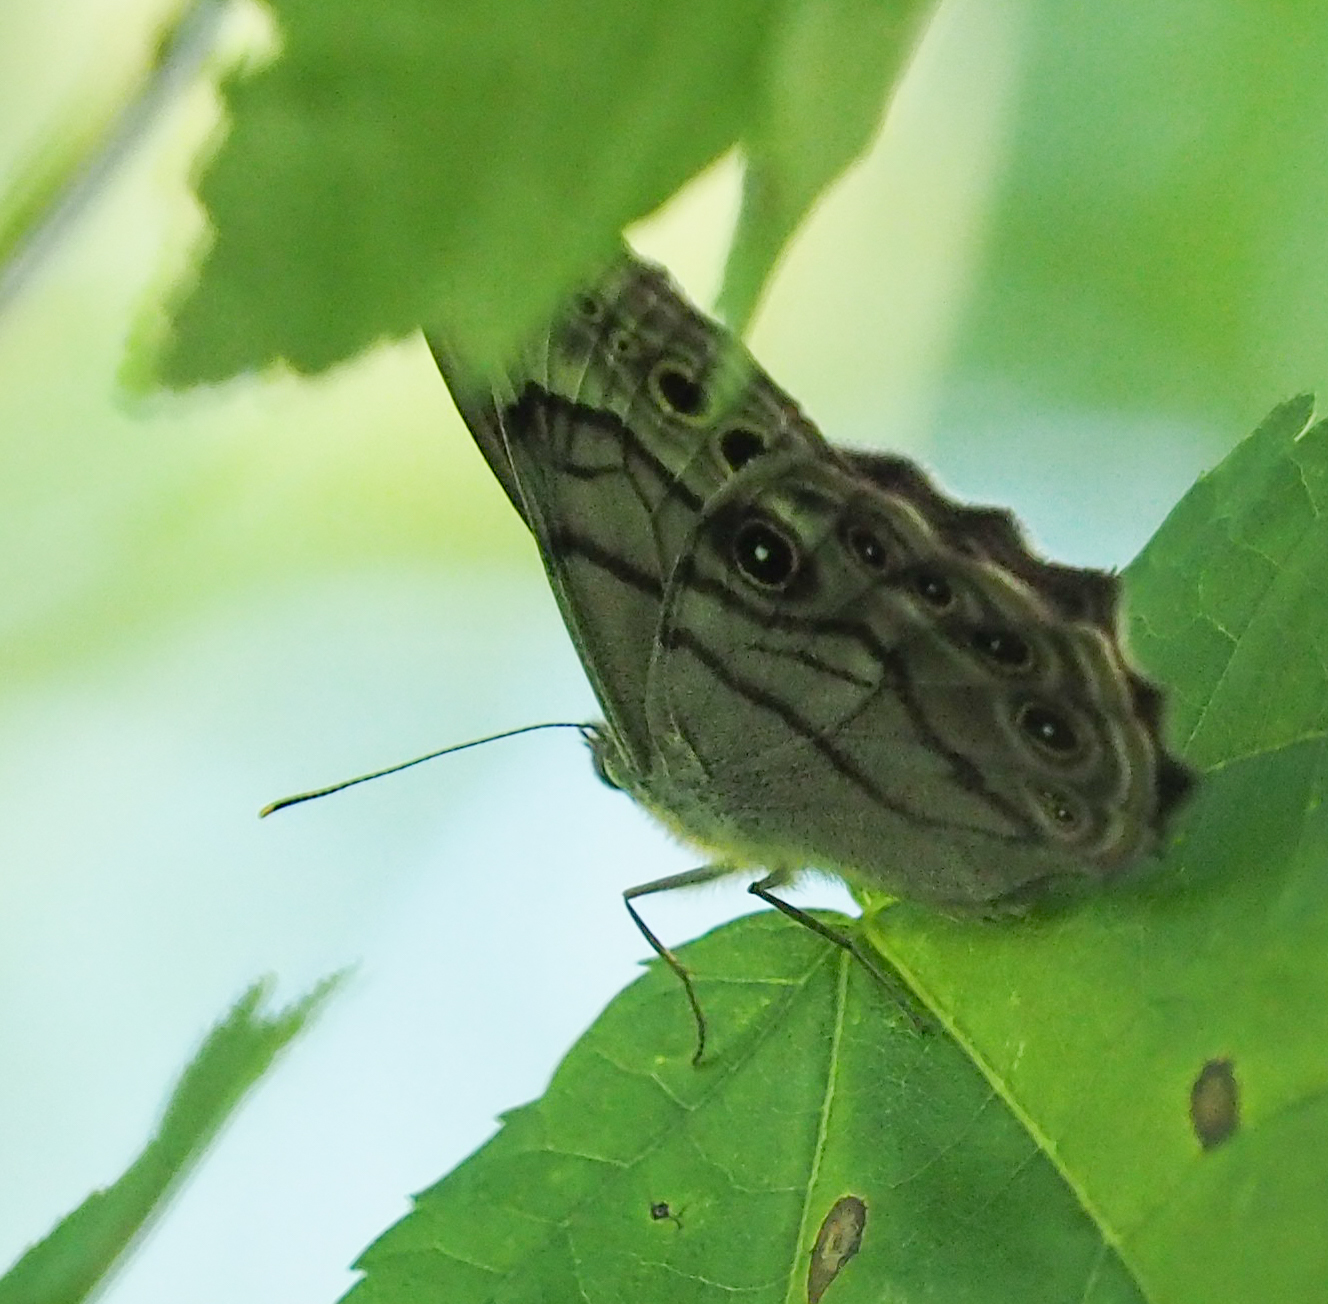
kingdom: Animalia
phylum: Arthropoda
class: Insecta
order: Lepidoptera
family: Nymphalidae
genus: Lethe
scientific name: Lethe anthedon
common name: Northern pearly-eye
